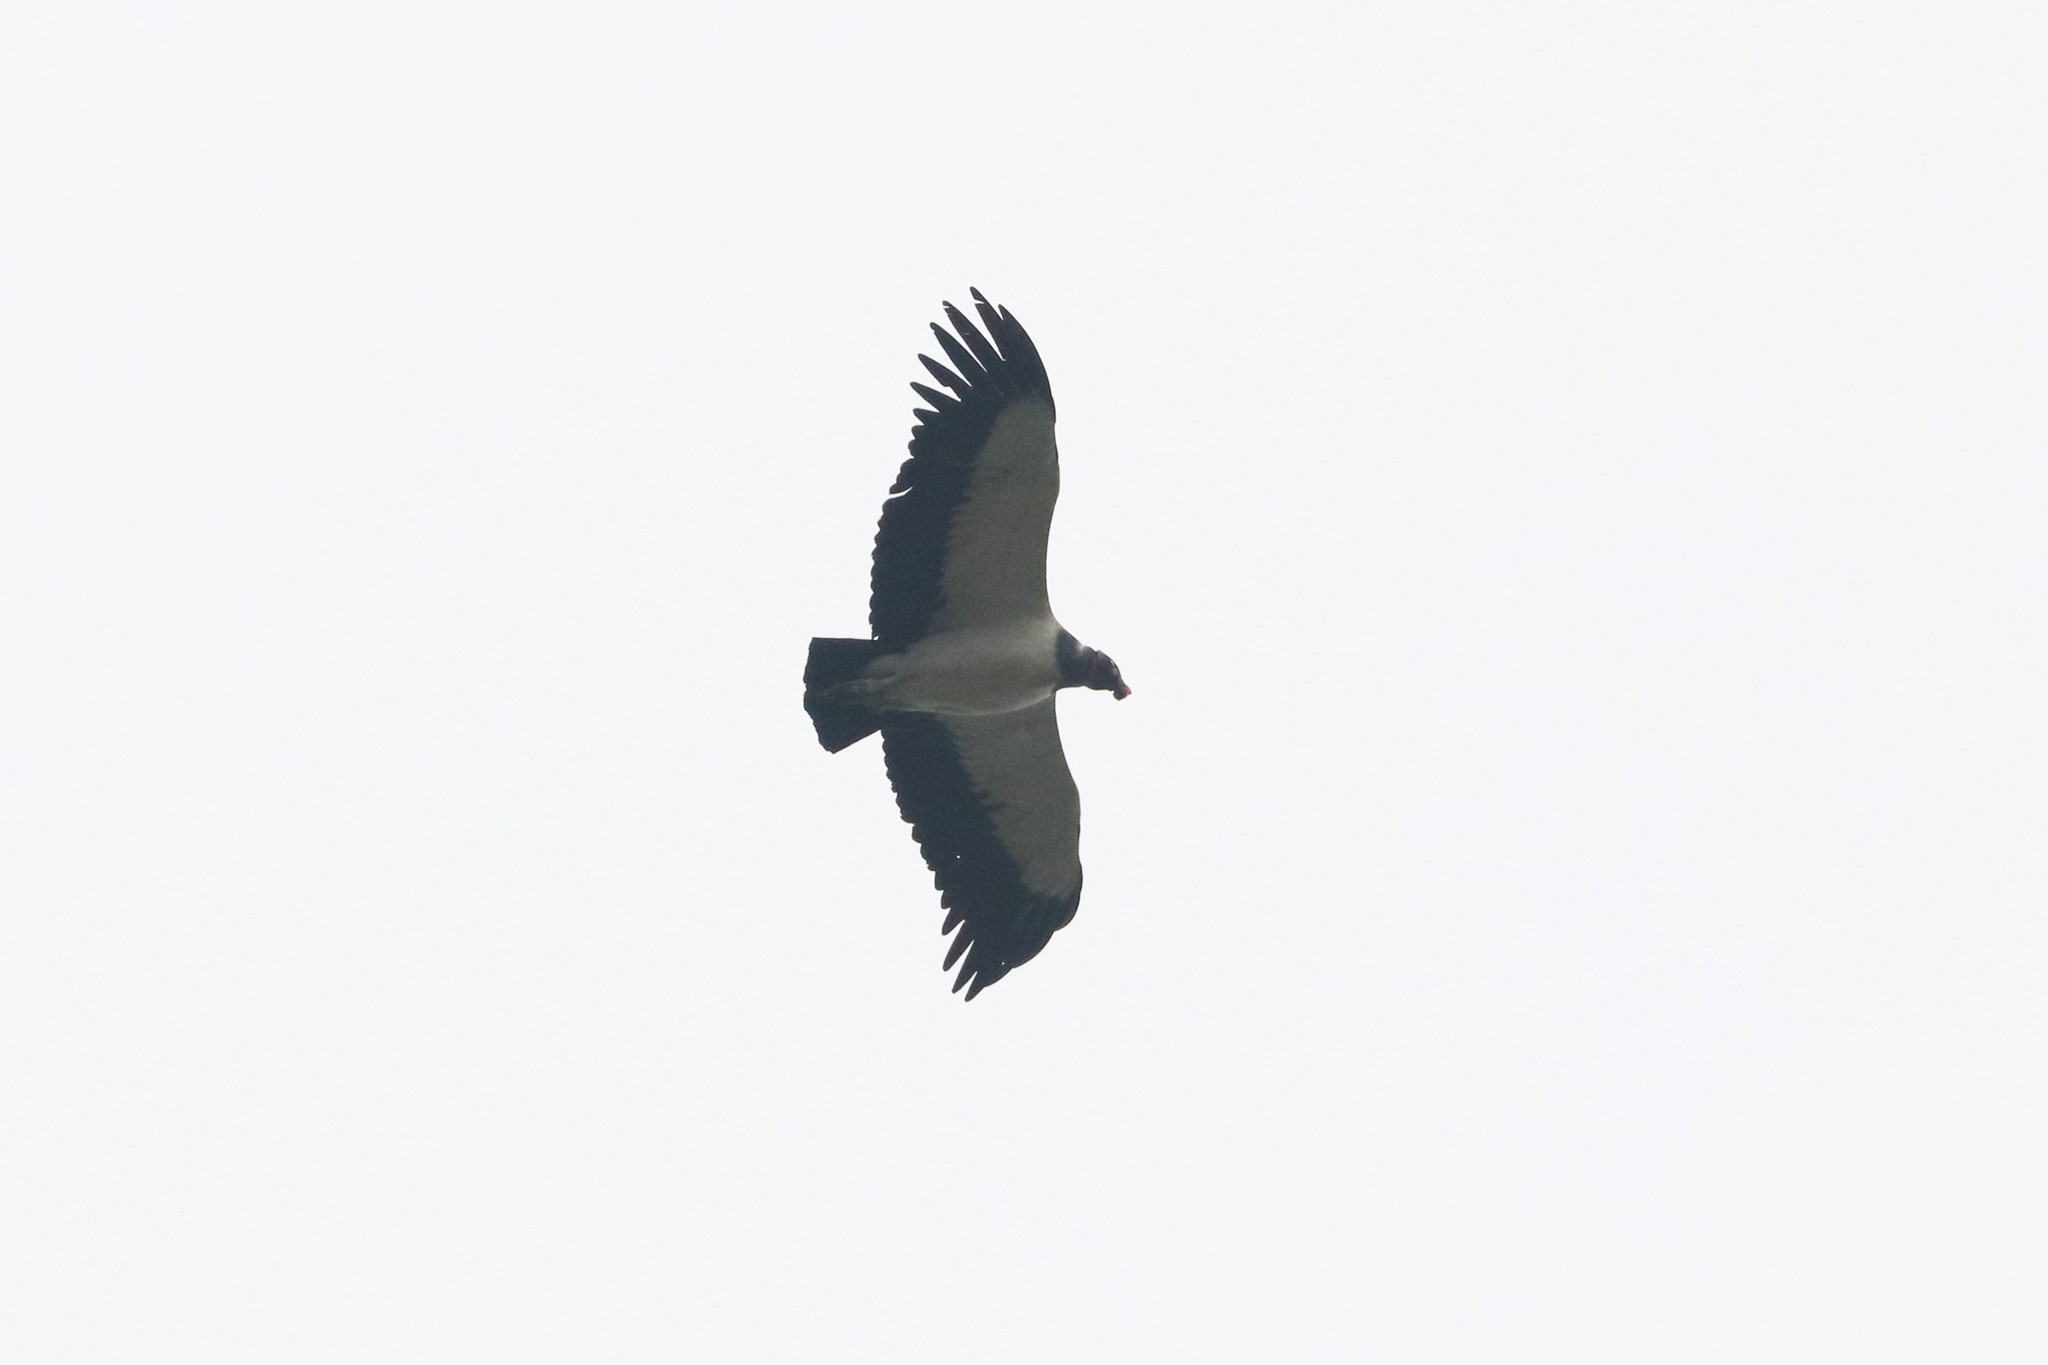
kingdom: Animalia
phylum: Chordata
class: Aves
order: Accipitriformes
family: Cathartidae
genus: Sarcoramphus
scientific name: Sarcoramphus papa
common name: King vulture
